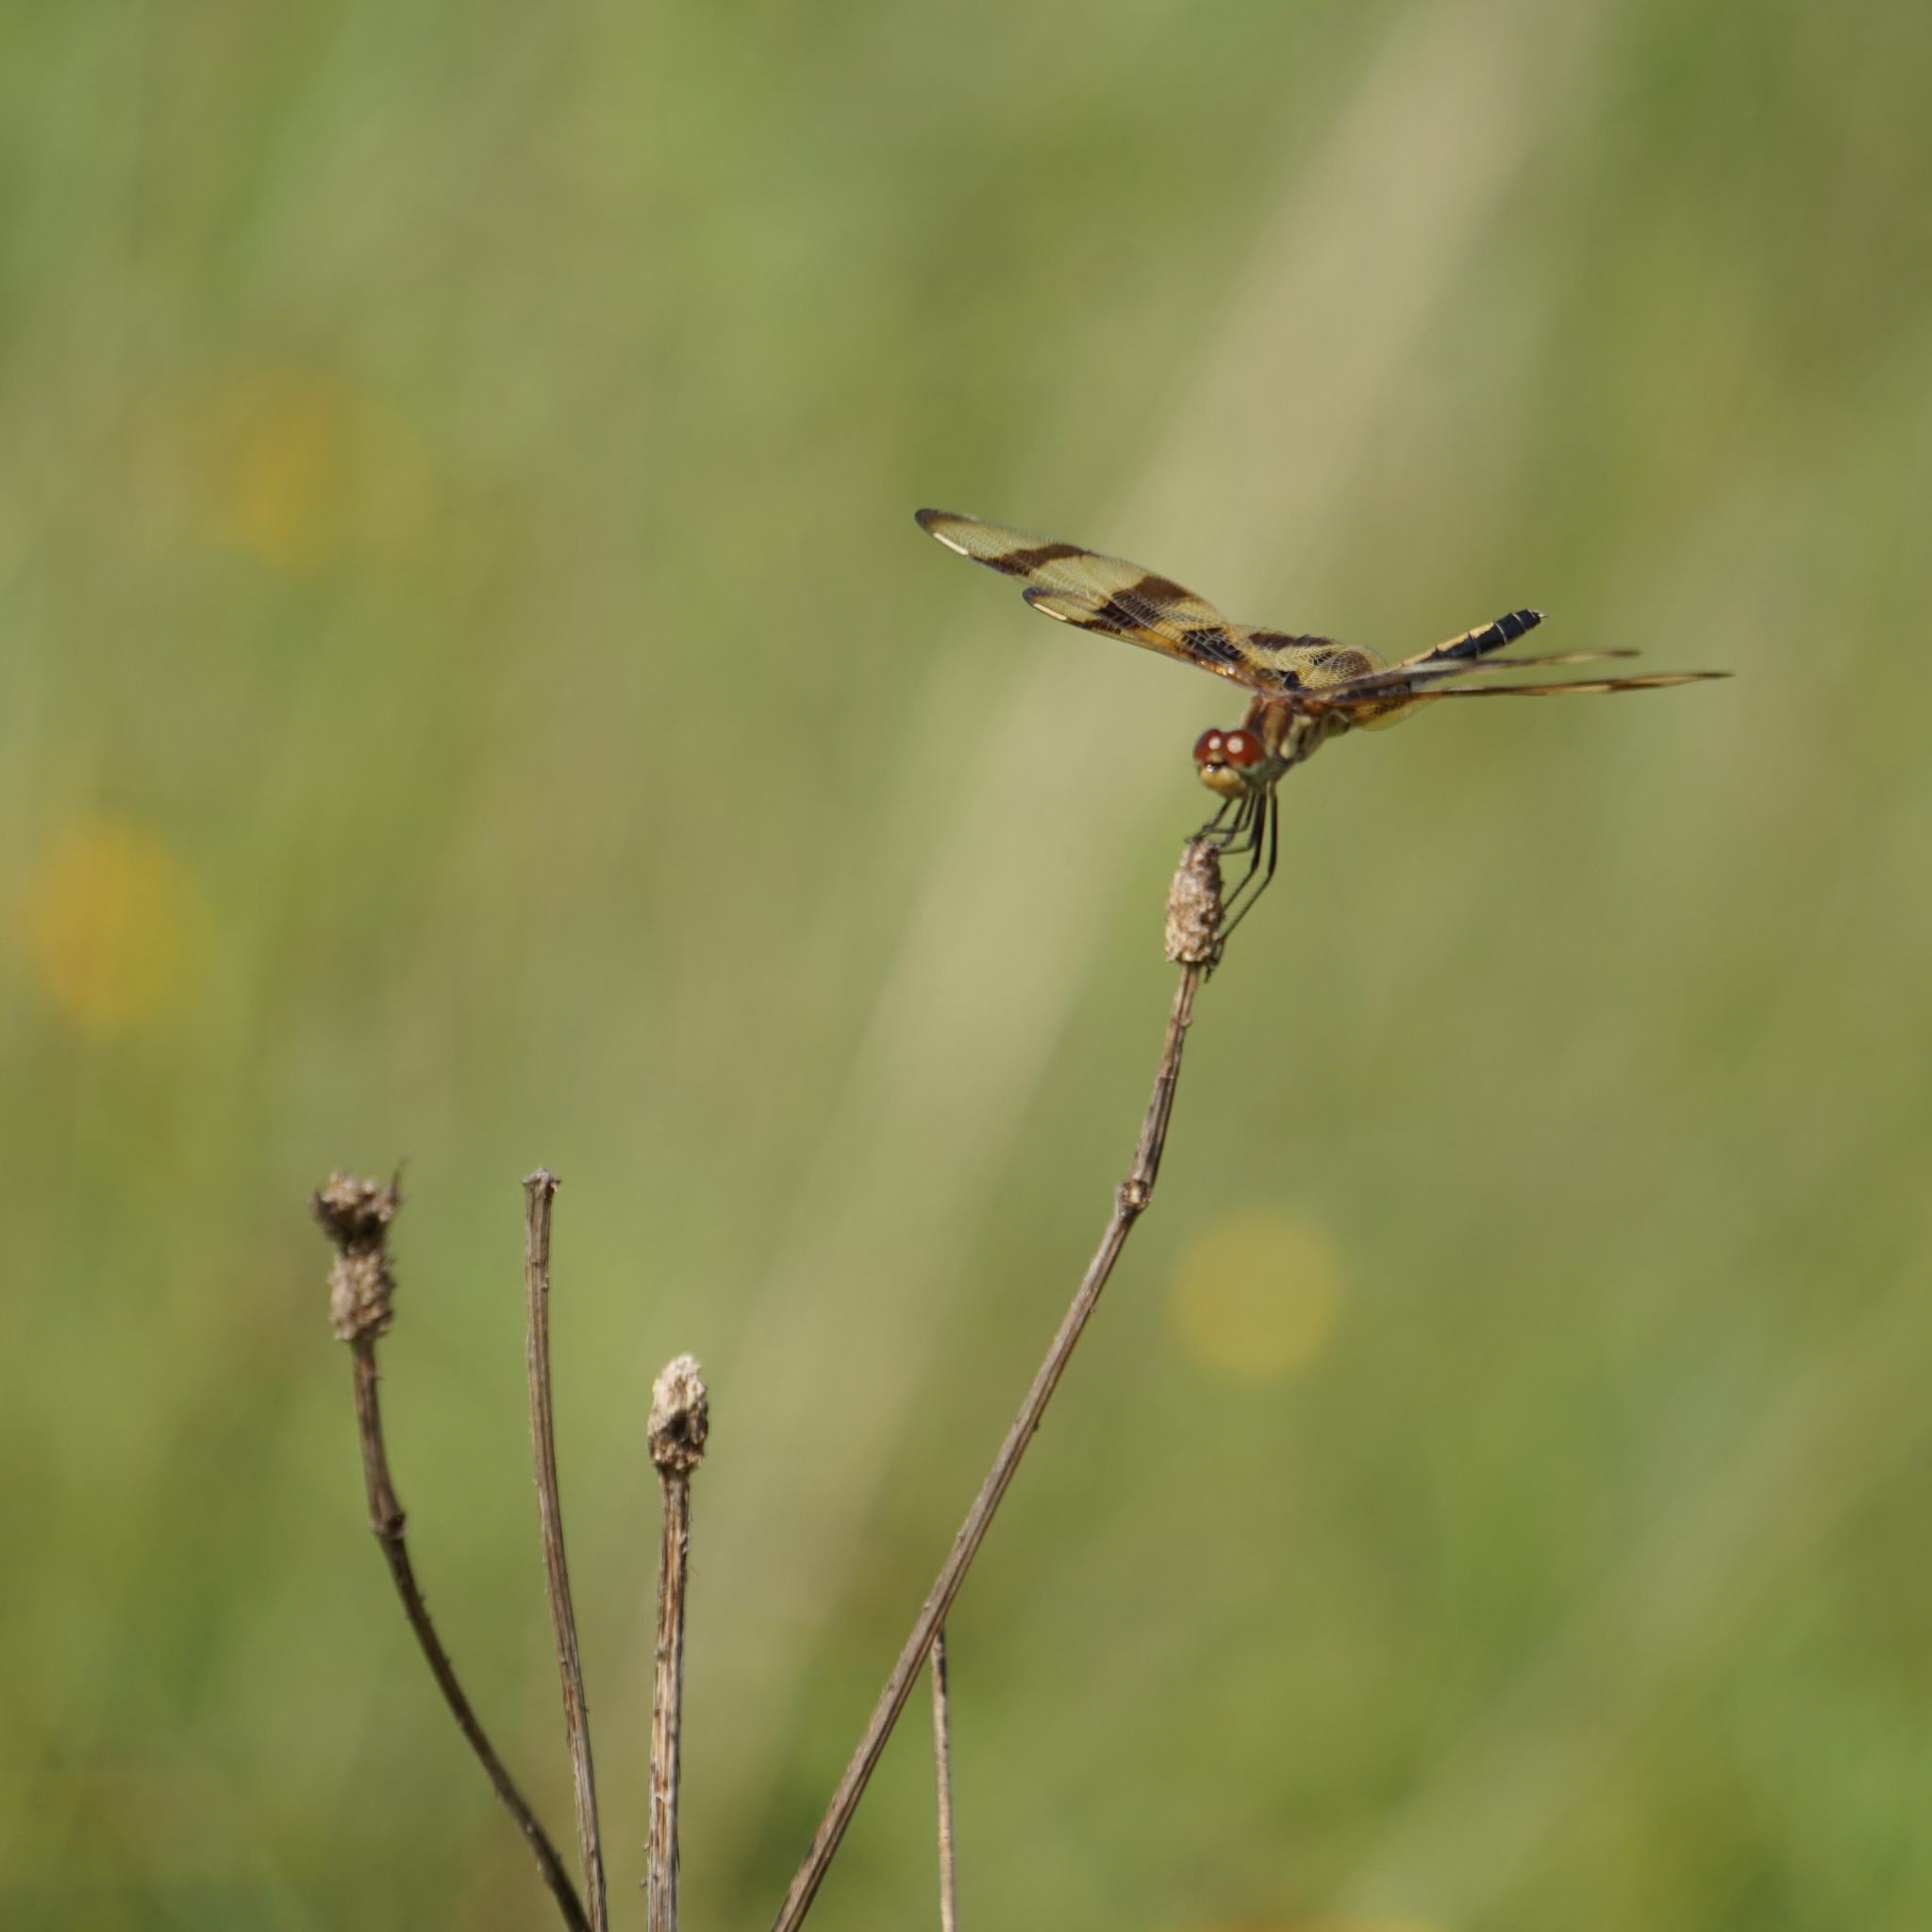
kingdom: Animalia
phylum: Arthropoda
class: Insecta
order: Odonata
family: Libellulidae
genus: Celithemis
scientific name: Celithemis eponina
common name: Halloween pennant
